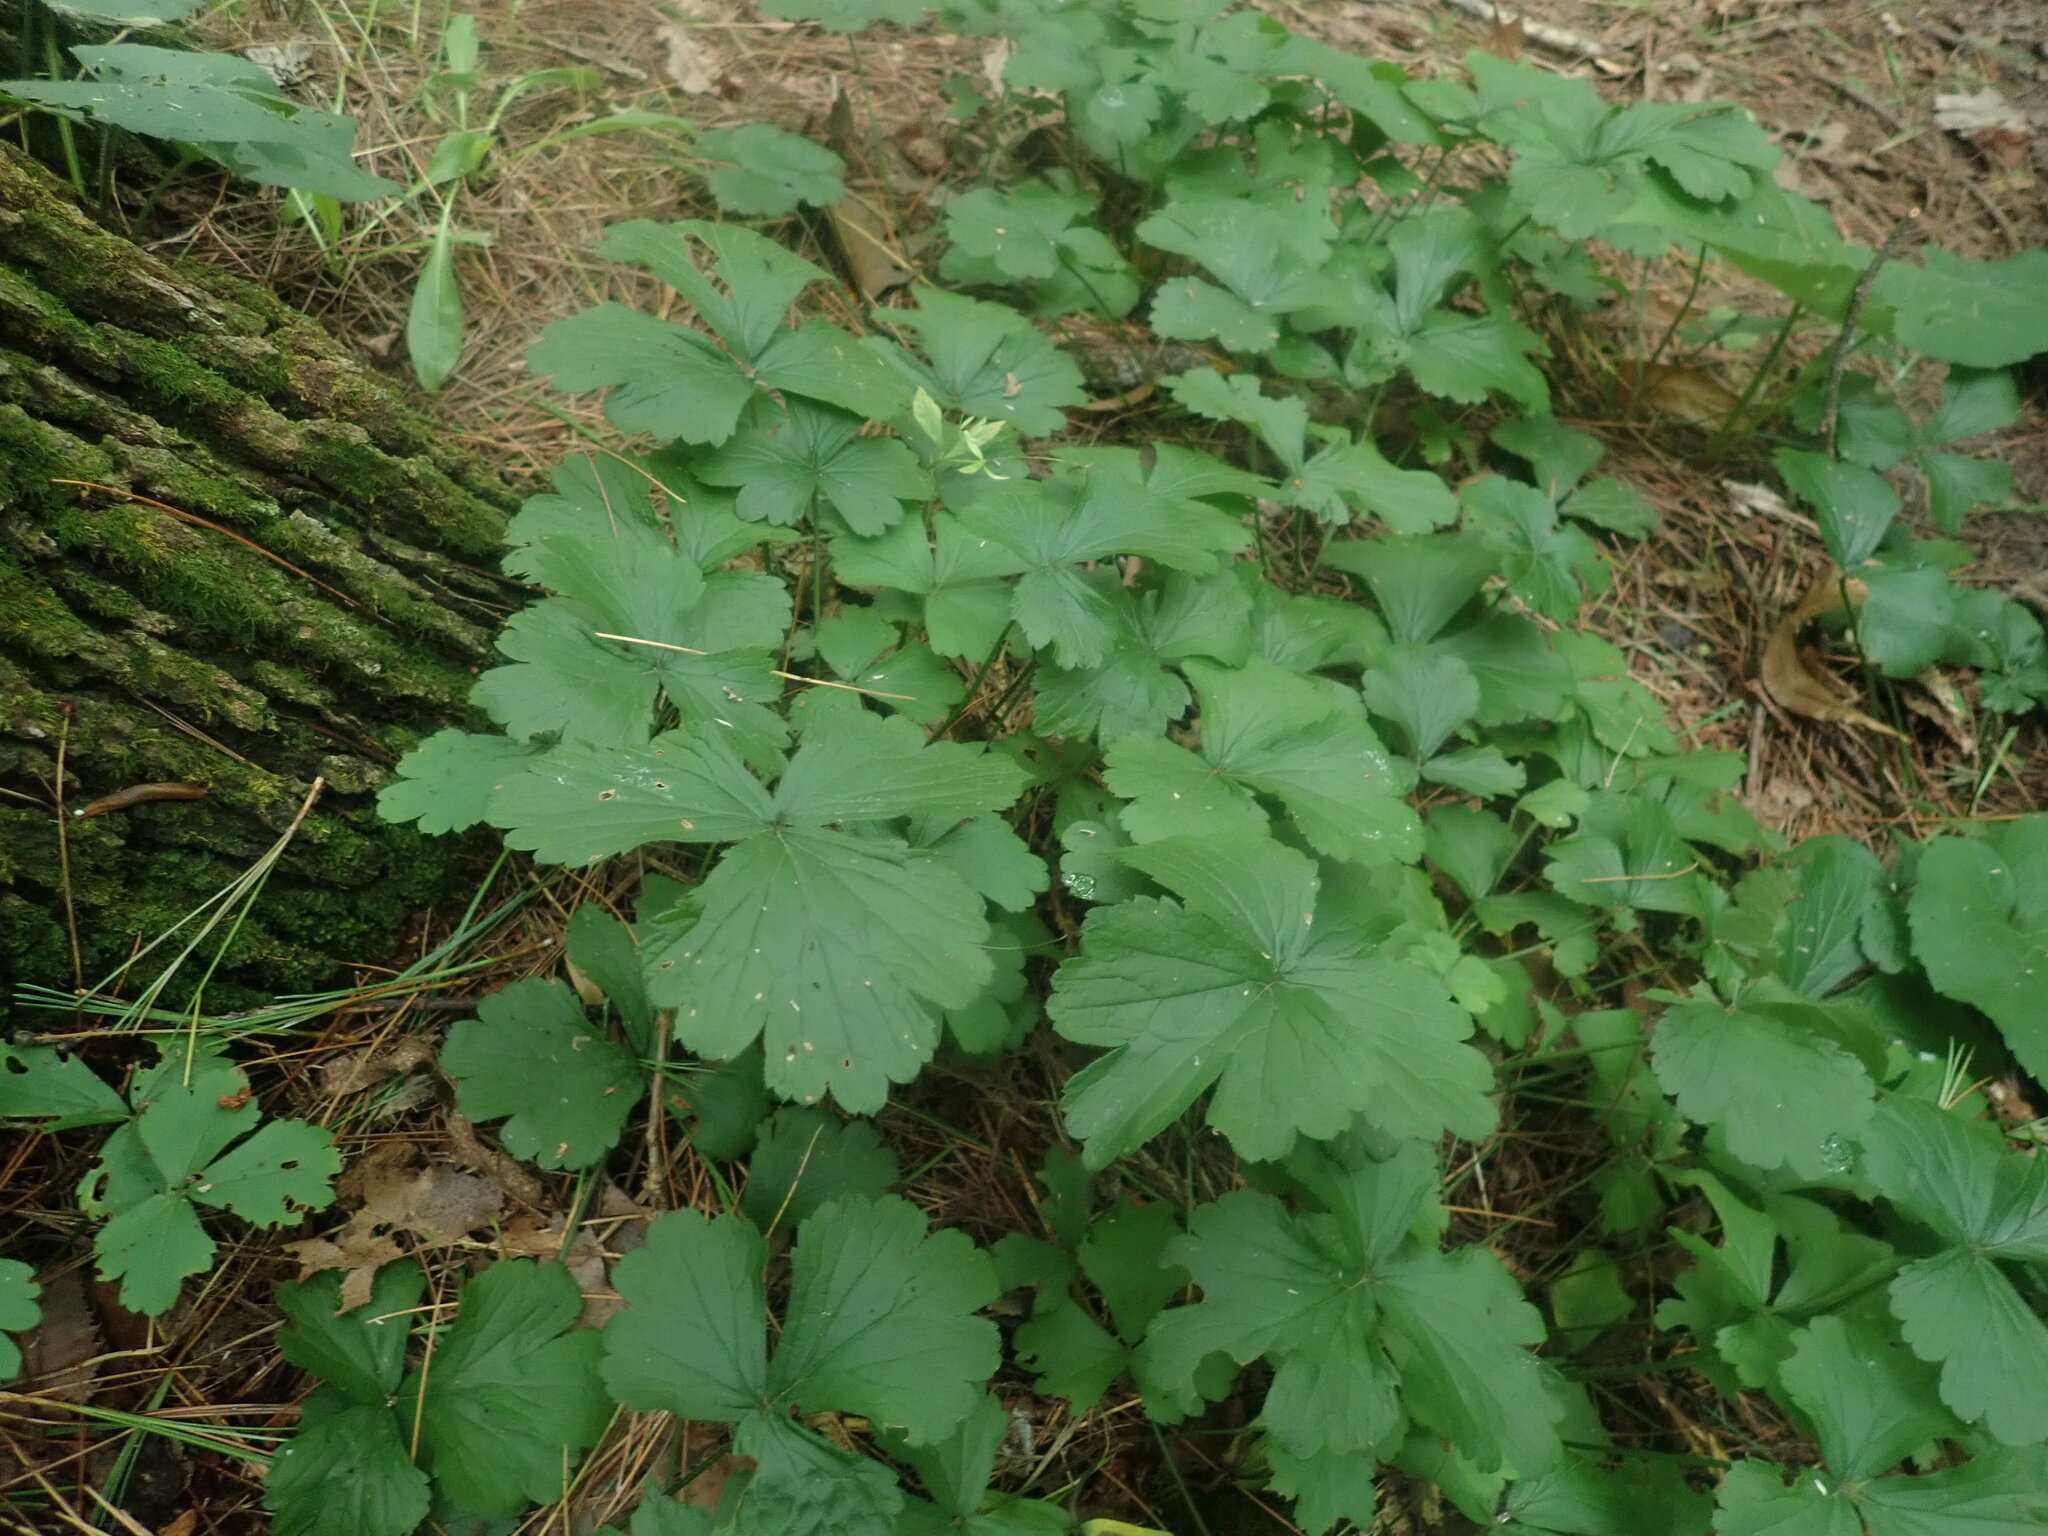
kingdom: Plantae
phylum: Tracheophyta
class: Magnoliopsida
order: Rosales
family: Rosaceae
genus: Geum
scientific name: Geum fragarioides
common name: Appalachian barren strawberry
